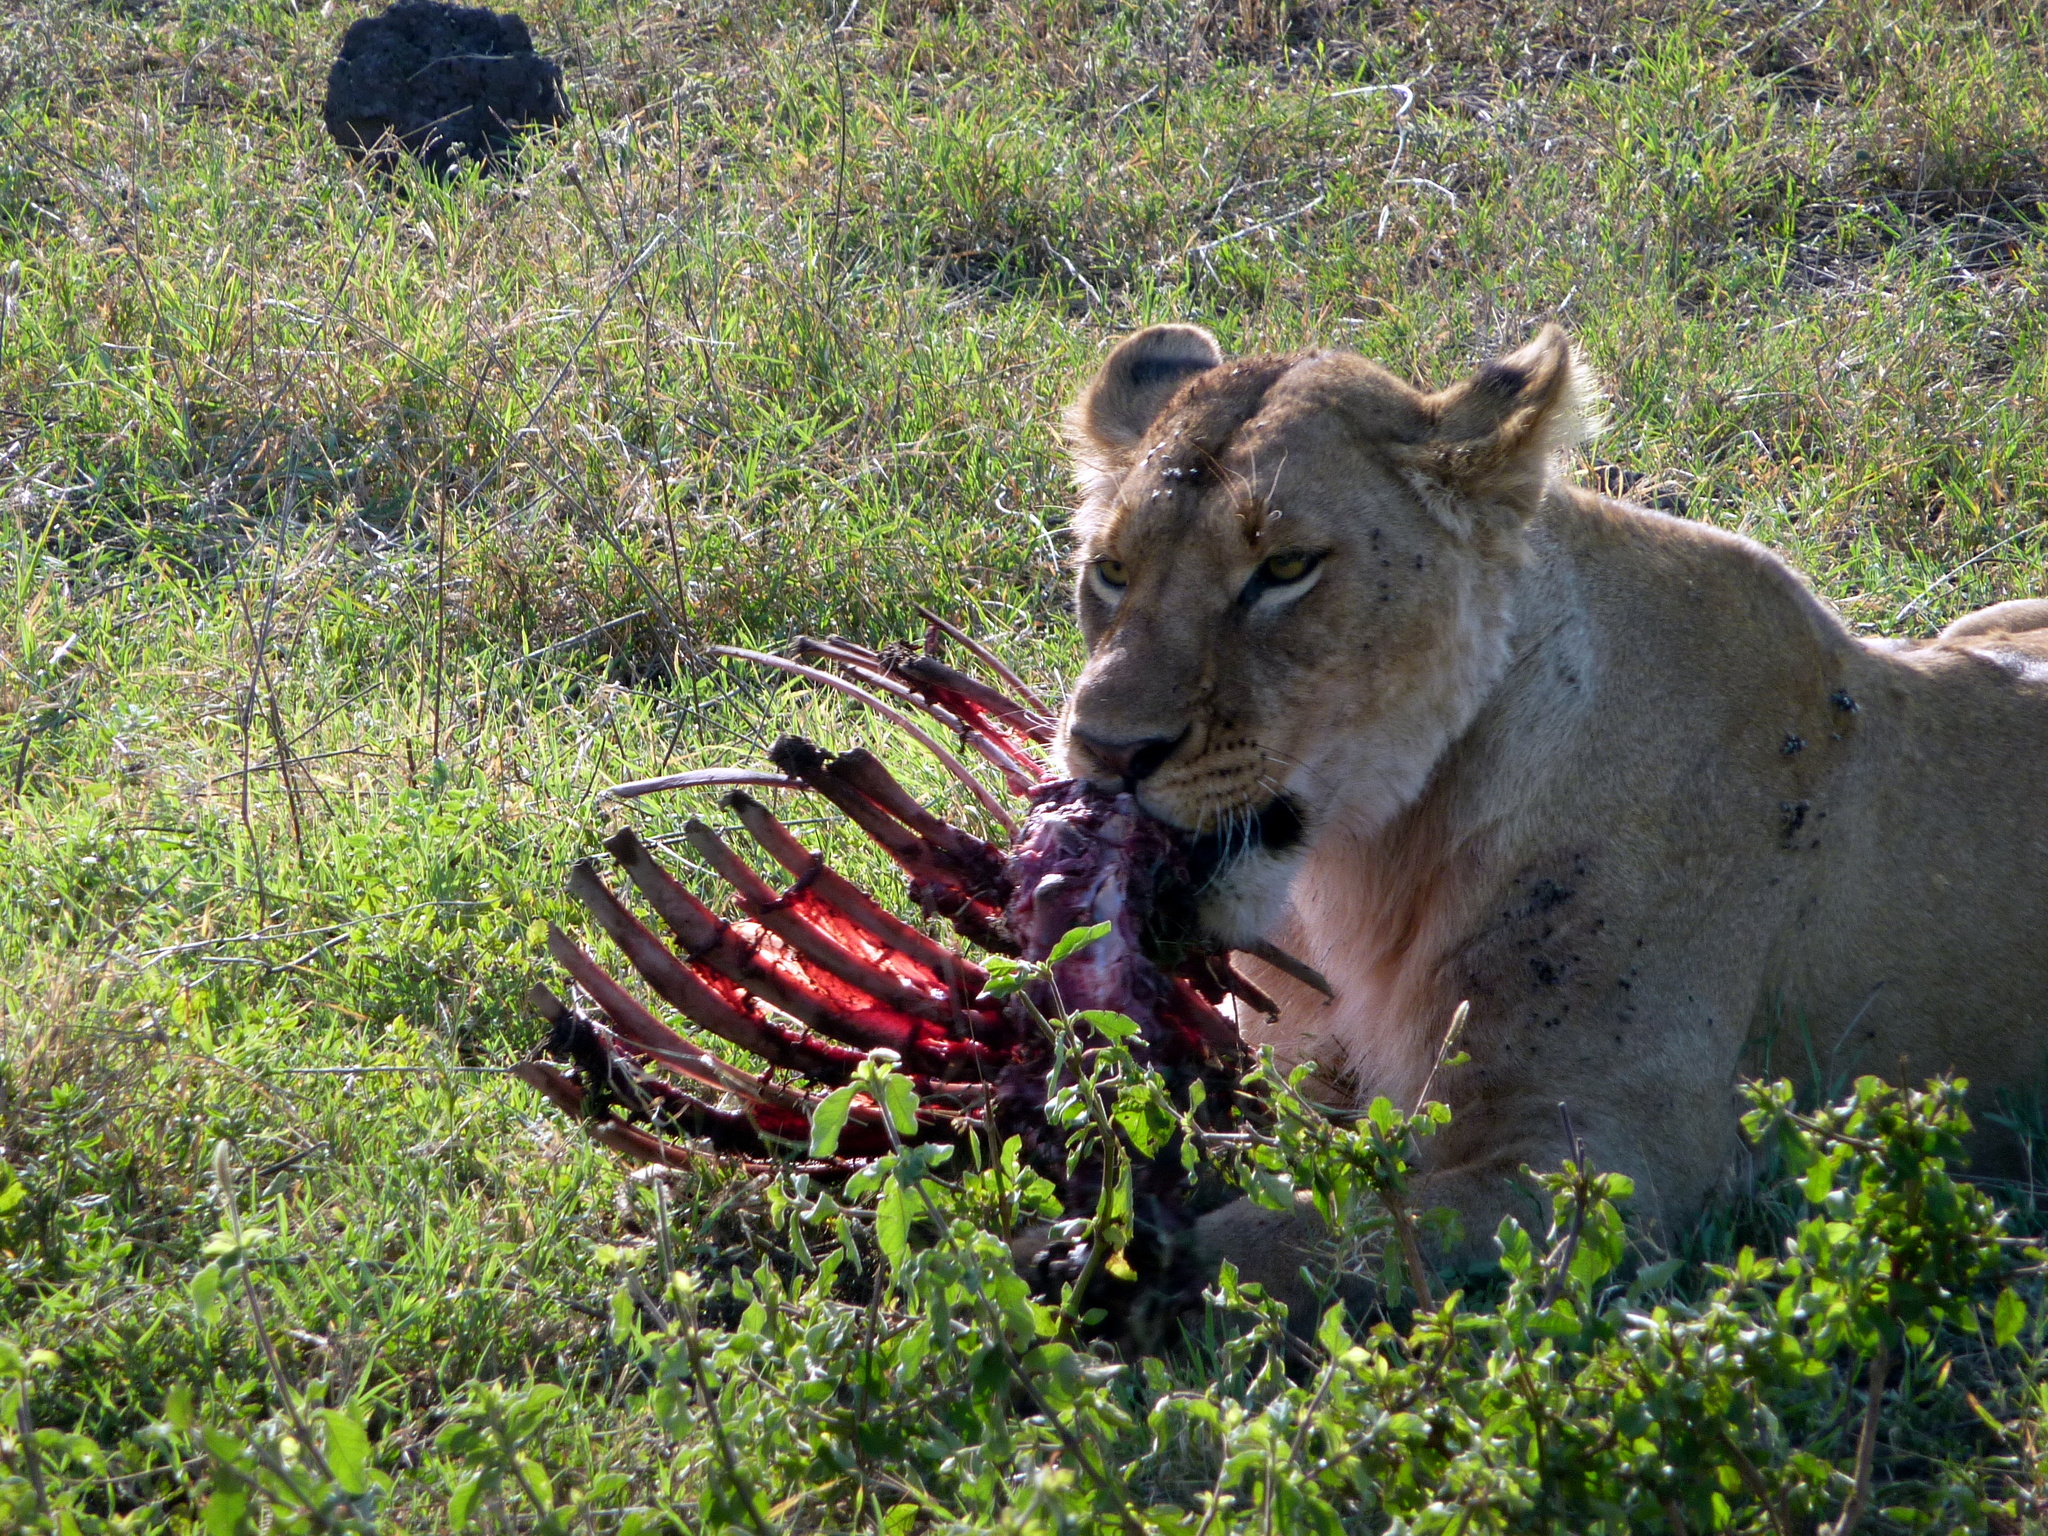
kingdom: Animalia
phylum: Chordata
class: Mammalia
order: Carnivora
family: Felidae
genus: Panthera
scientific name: Panthera leo
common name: Lion
